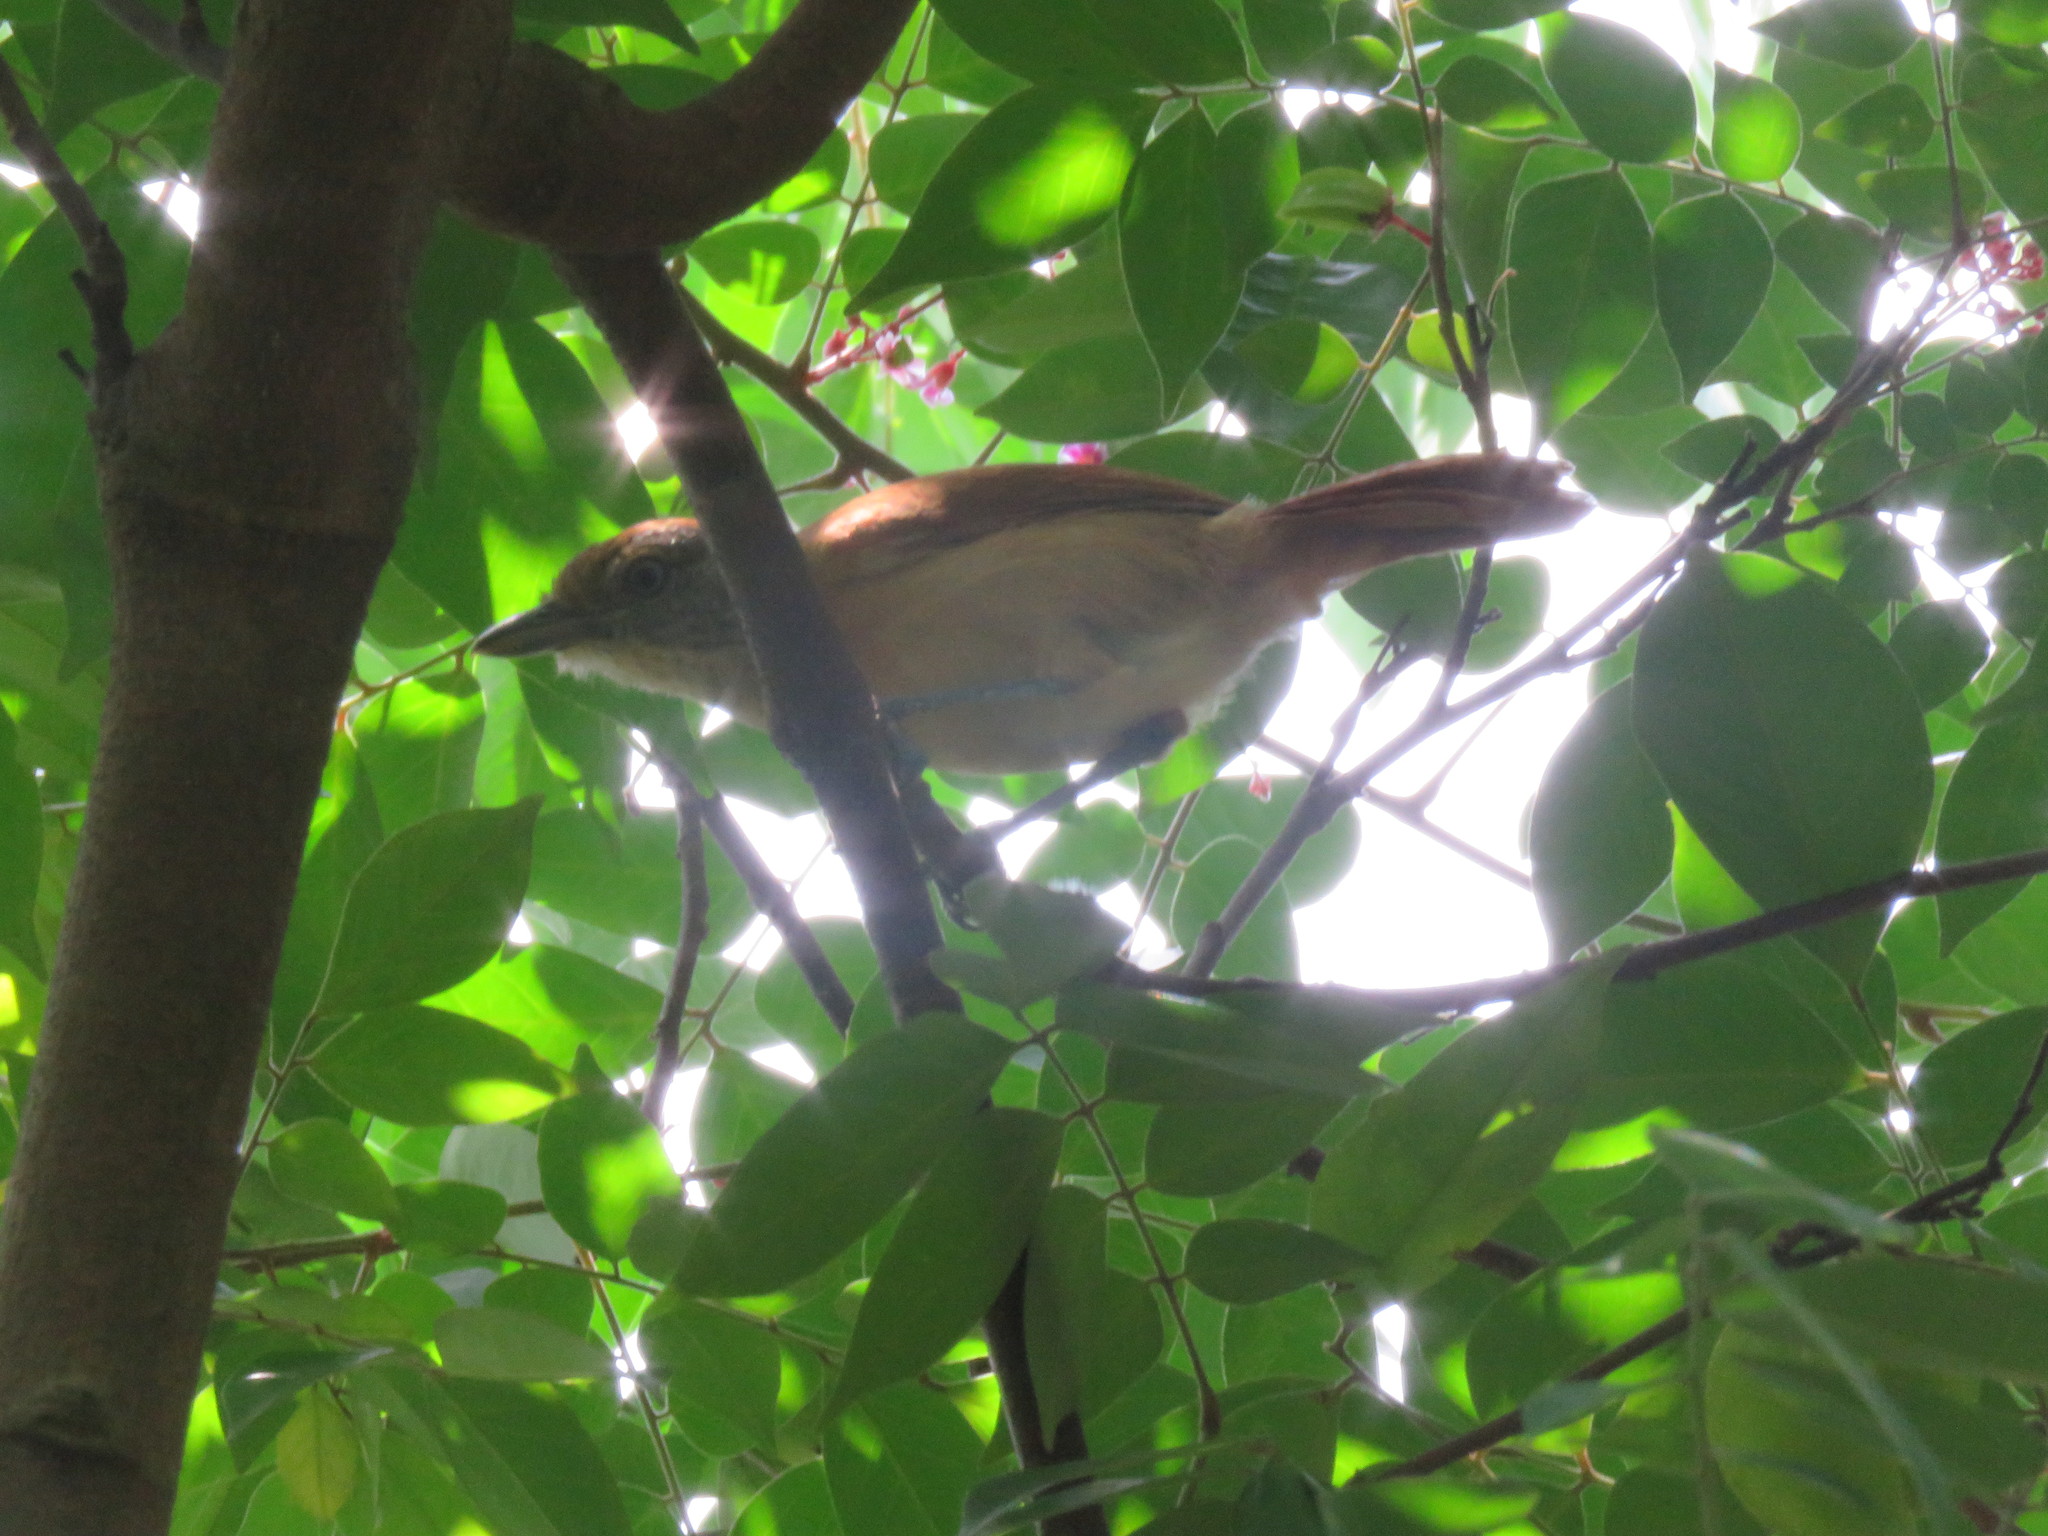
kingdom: Animalia
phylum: Chordata
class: Aves
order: Passeriformes
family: Thamnophilidae
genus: Thamnophilus
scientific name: Thamnophilus doliatus
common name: Barred antshrike
